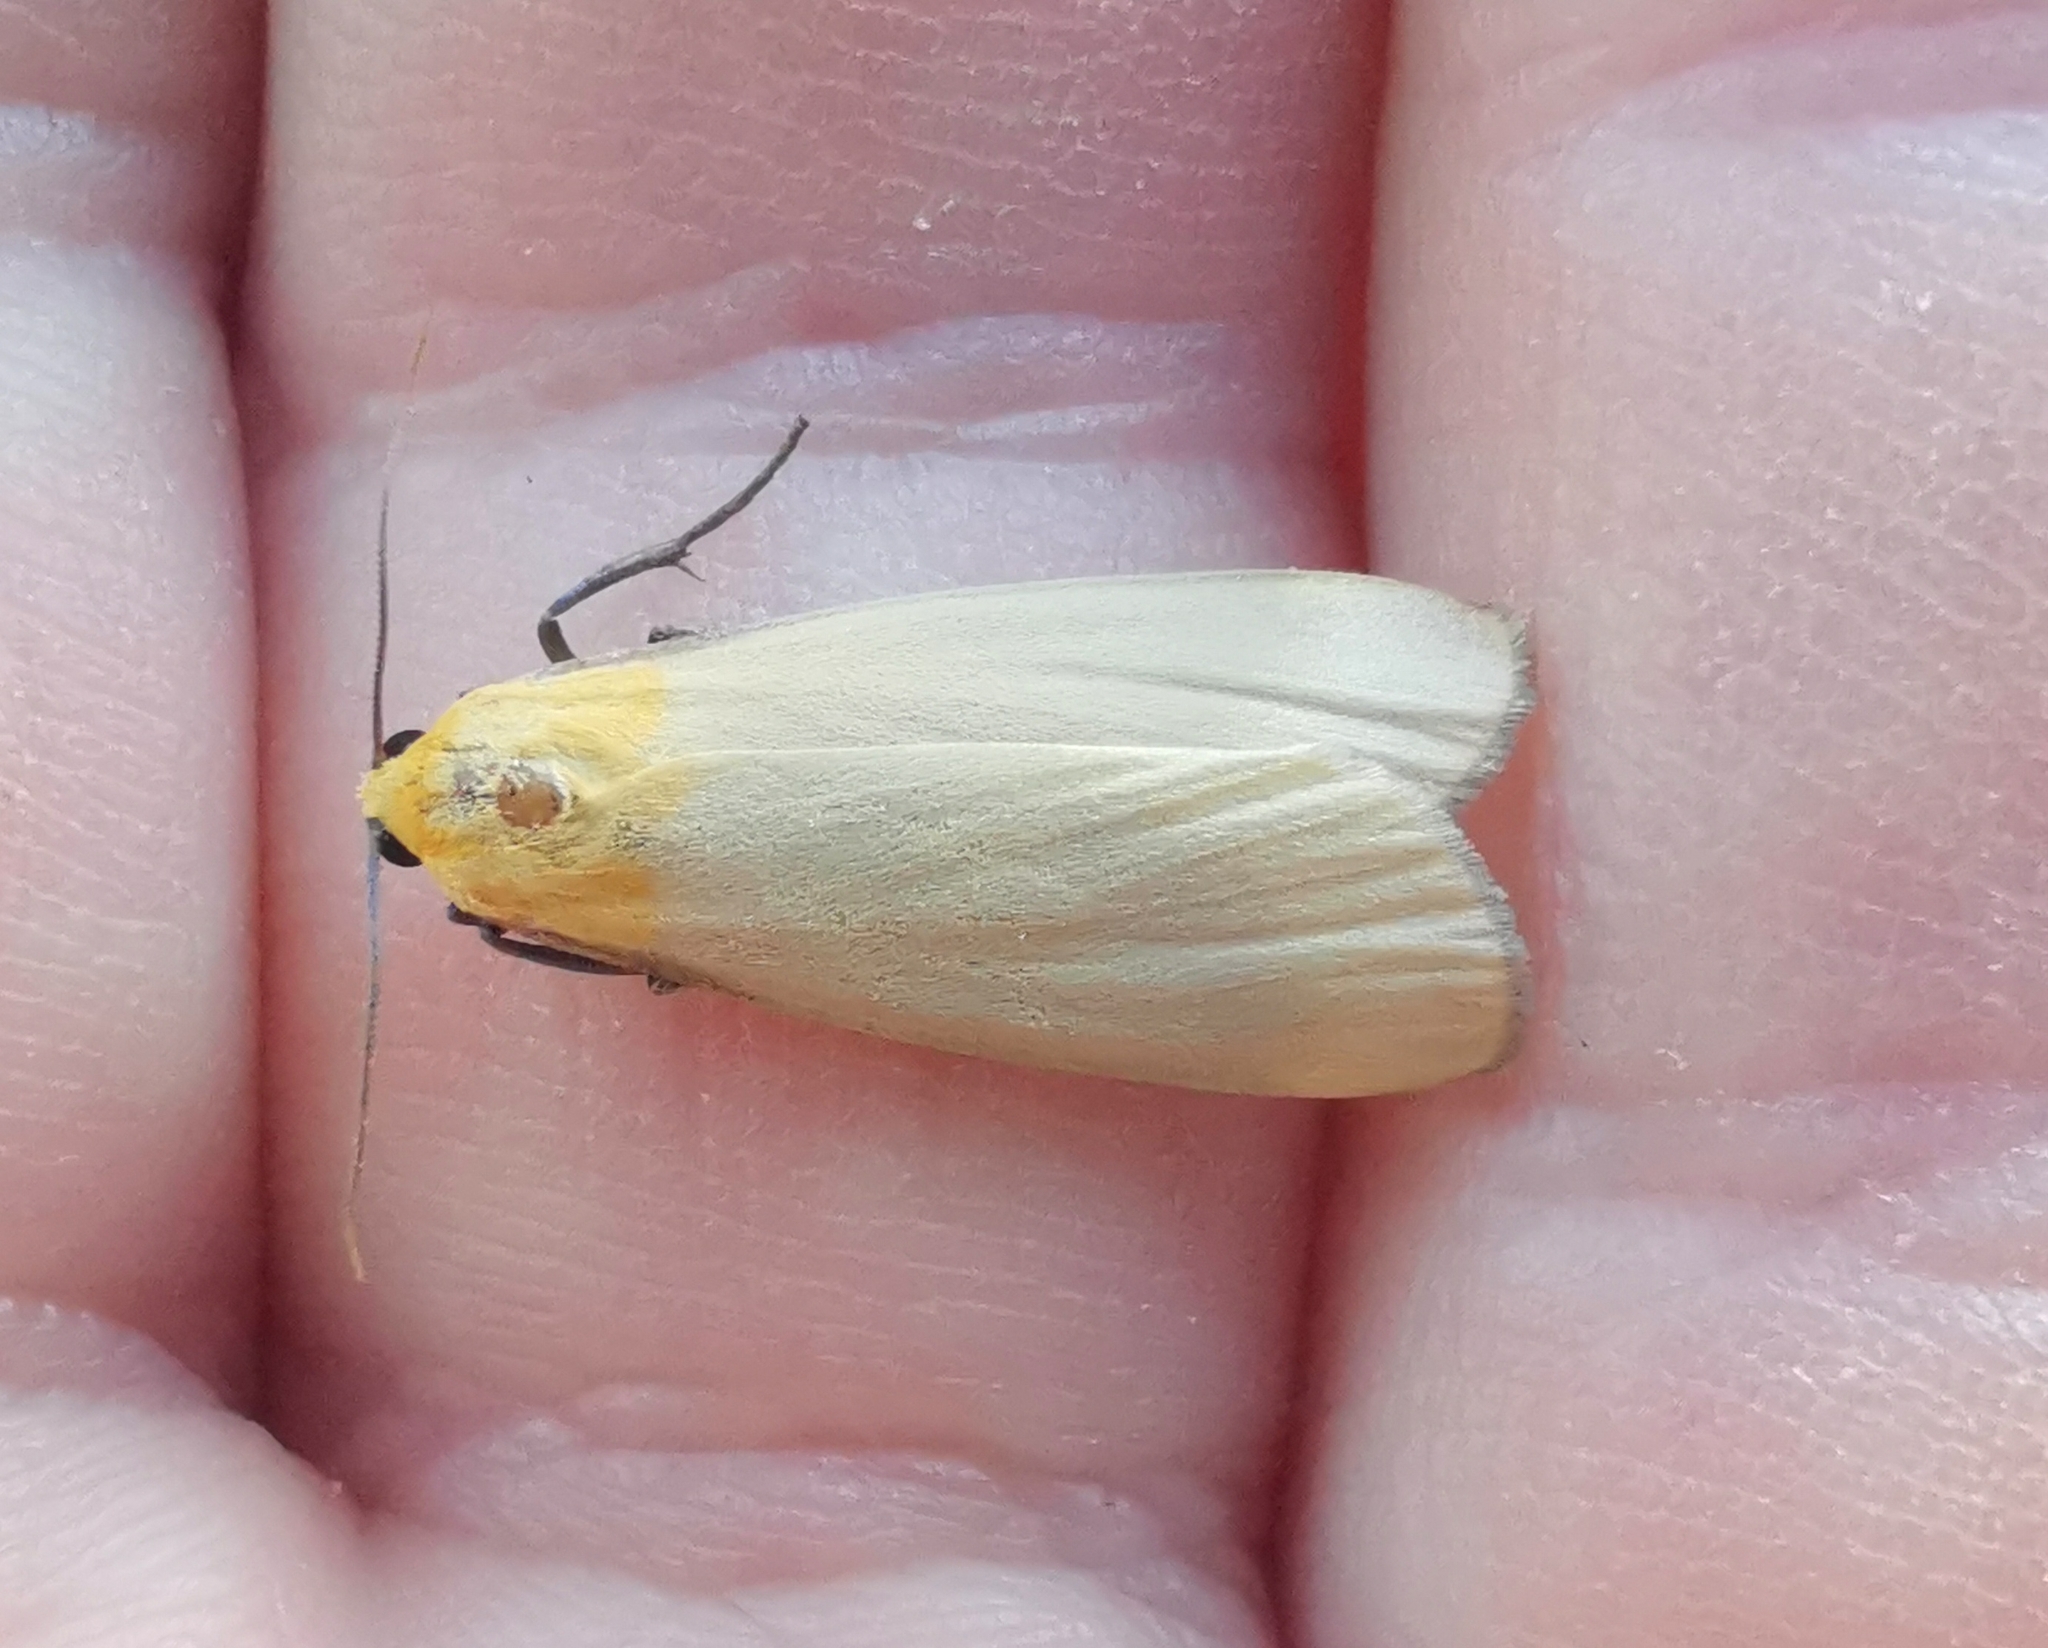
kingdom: Animalia
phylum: Arthropoda
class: Insecta
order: Lepidoptera
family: Erebidae
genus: Lithosia
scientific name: Lithosia quadra
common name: Four-spotted footman
